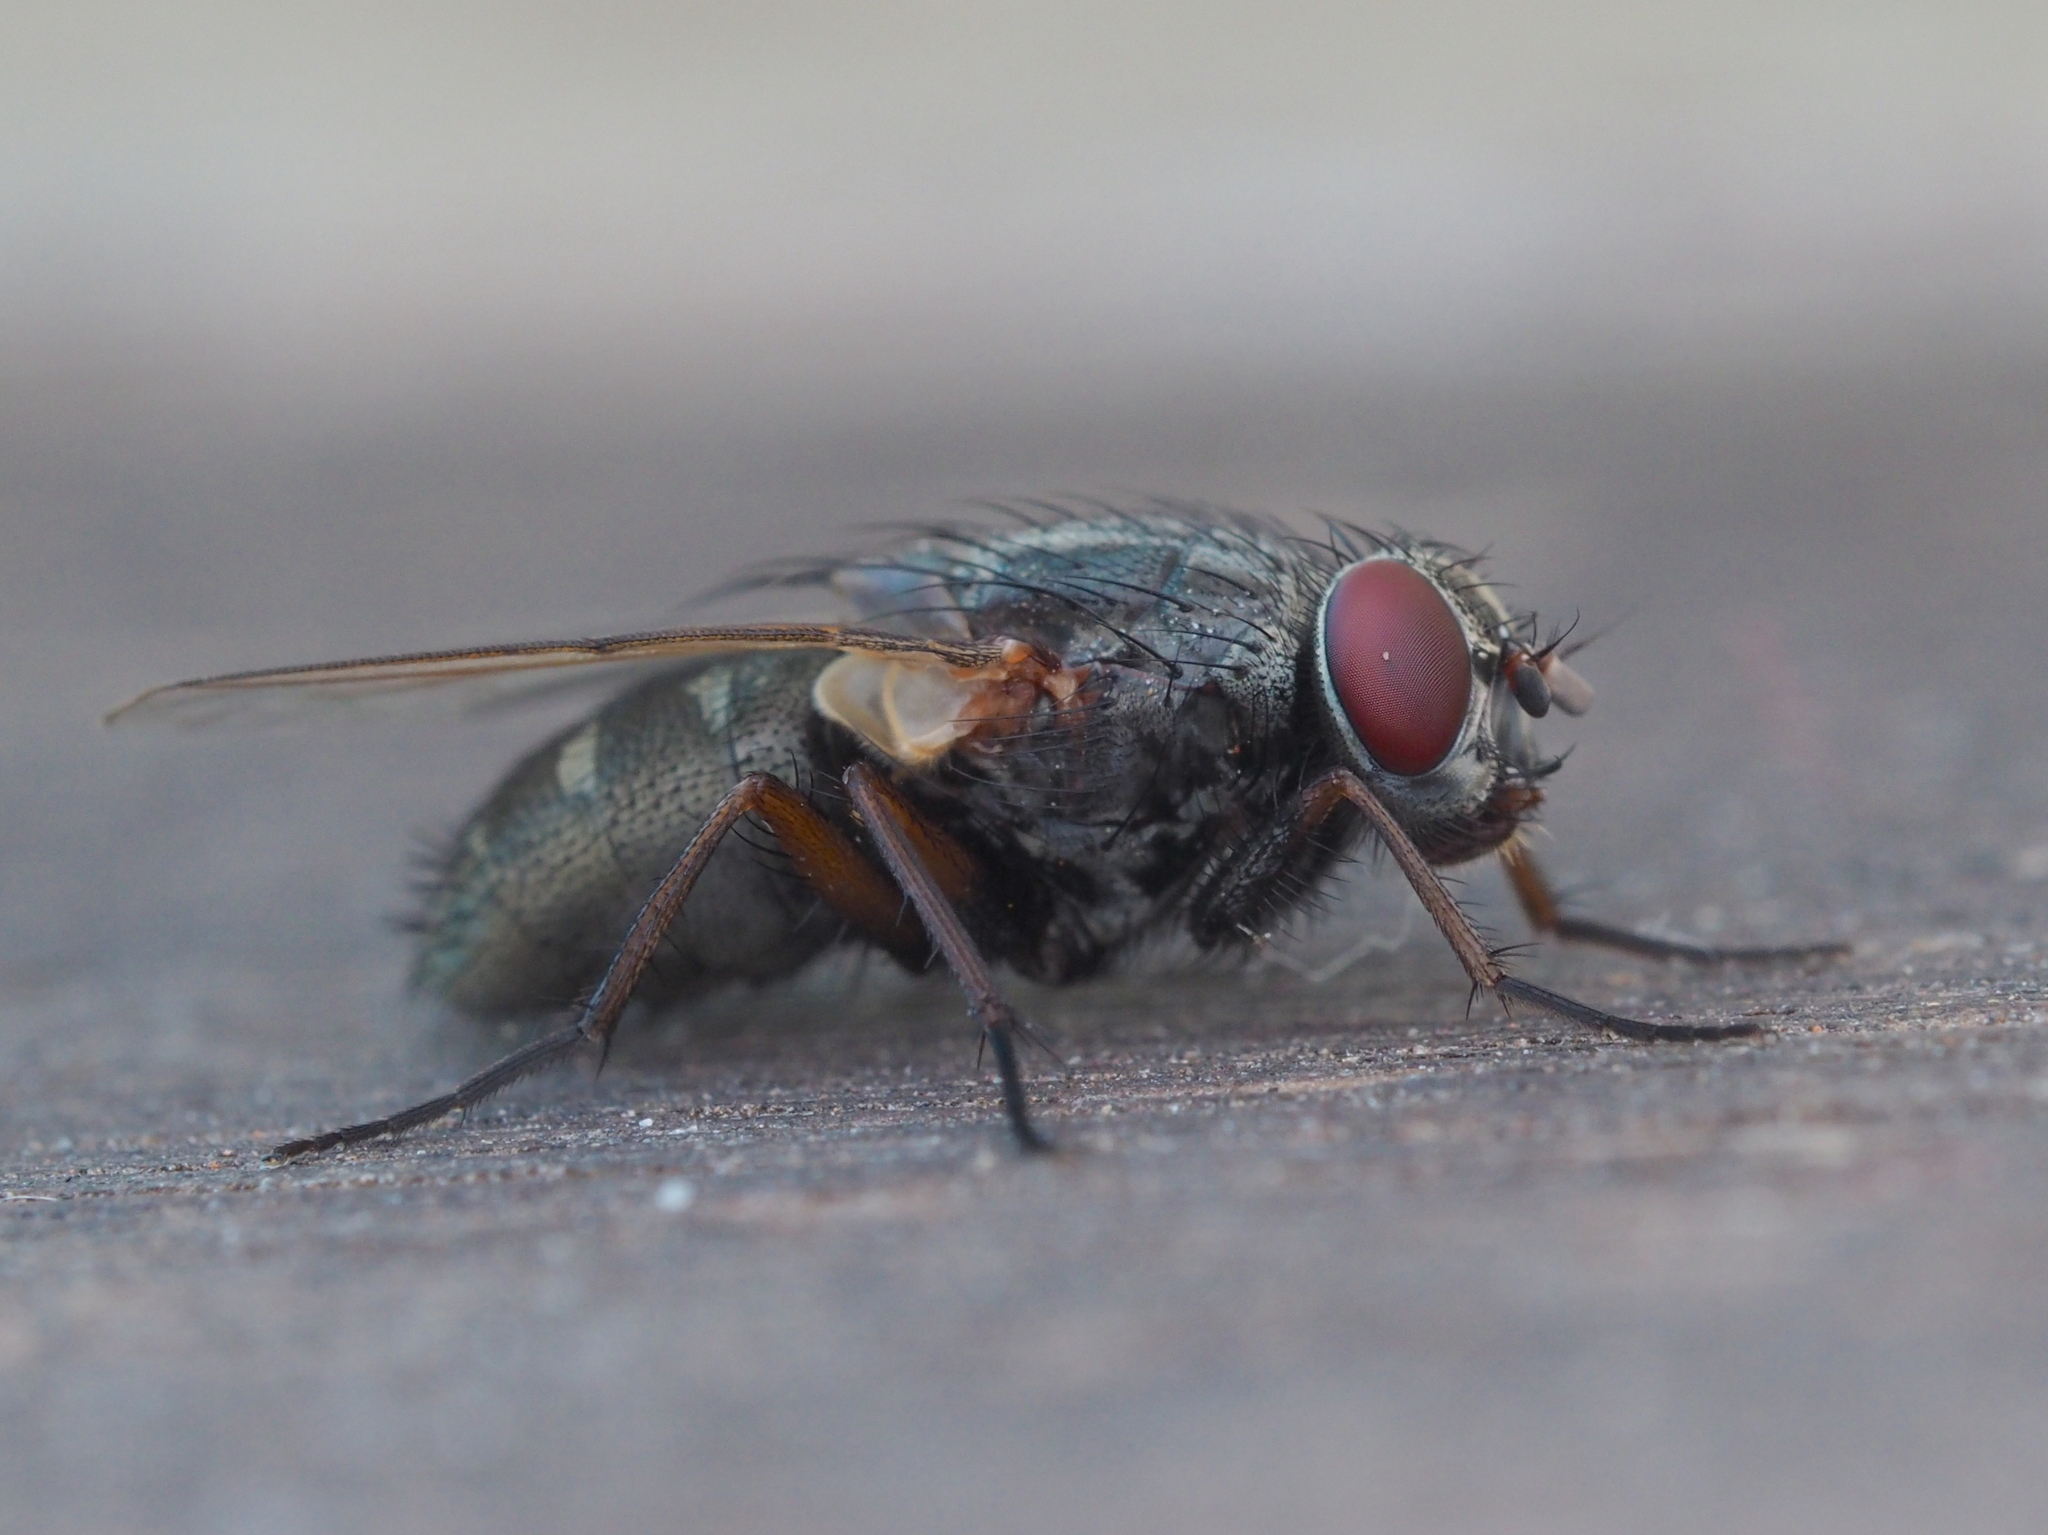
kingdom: Animalia
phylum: Arthropoda
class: Insecta
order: Diptera
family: Muscidae
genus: Muscina
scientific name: Muscina stabulans
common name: False stable fly
